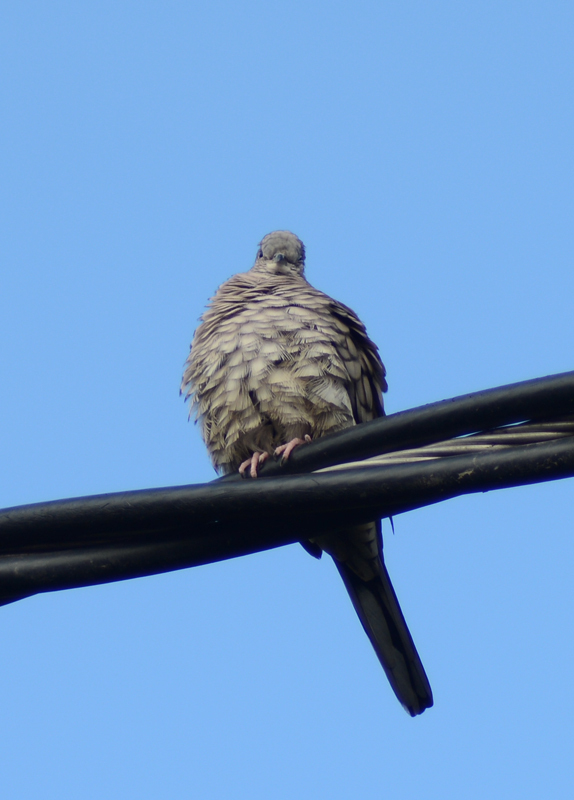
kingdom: Animalia
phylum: Chordata
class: Aves
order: Columbiformes
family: Columbidae
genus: Columbina
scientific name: Columbina inca
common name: Inca dove
